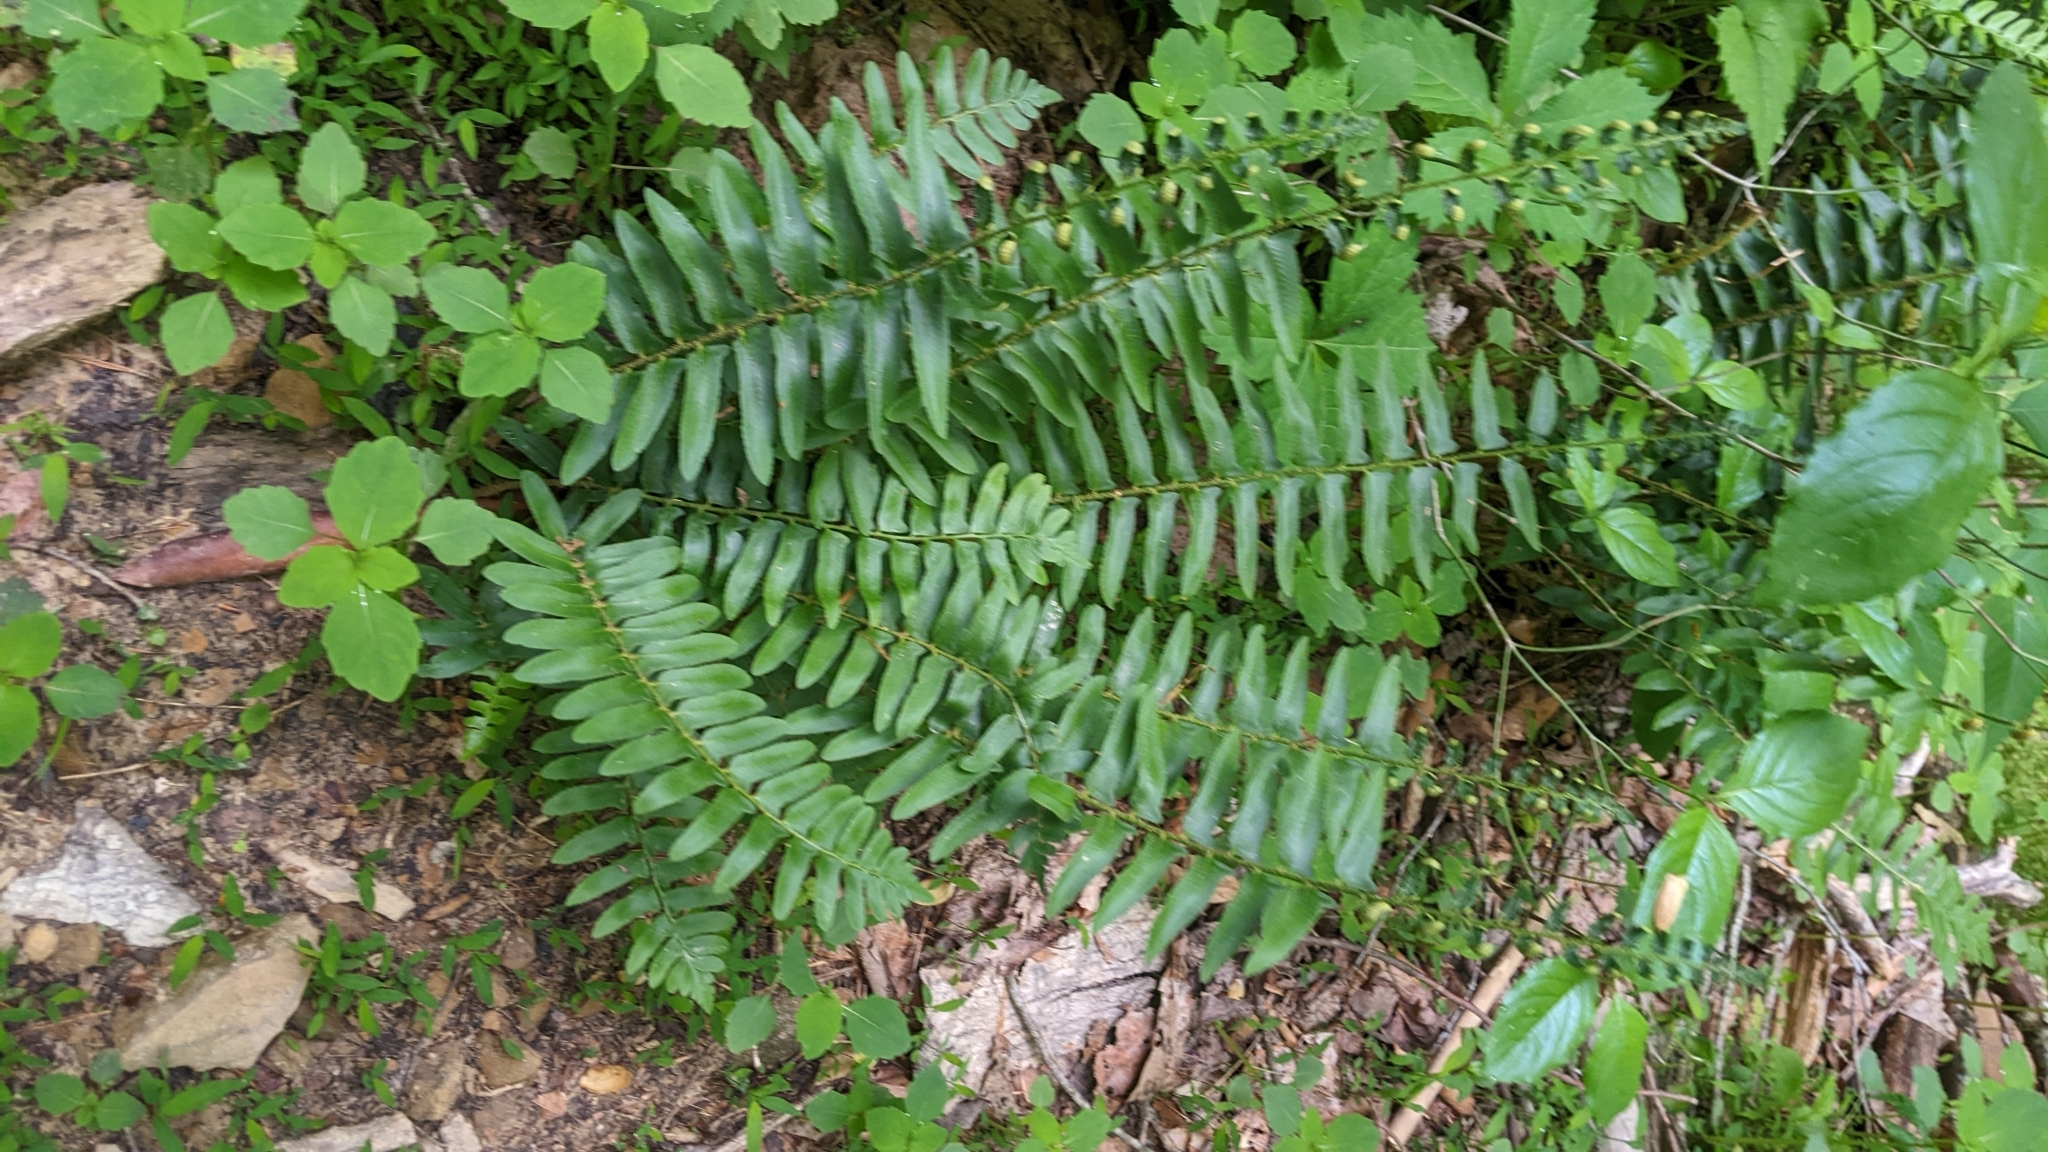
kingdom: Plantae
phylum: Tracheophyta
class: Polypodiopsida
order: Polypodiales
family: Dryopteridaceae
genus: Polystichum
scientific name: Polystichum acrostichoides
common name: Christmas fern
